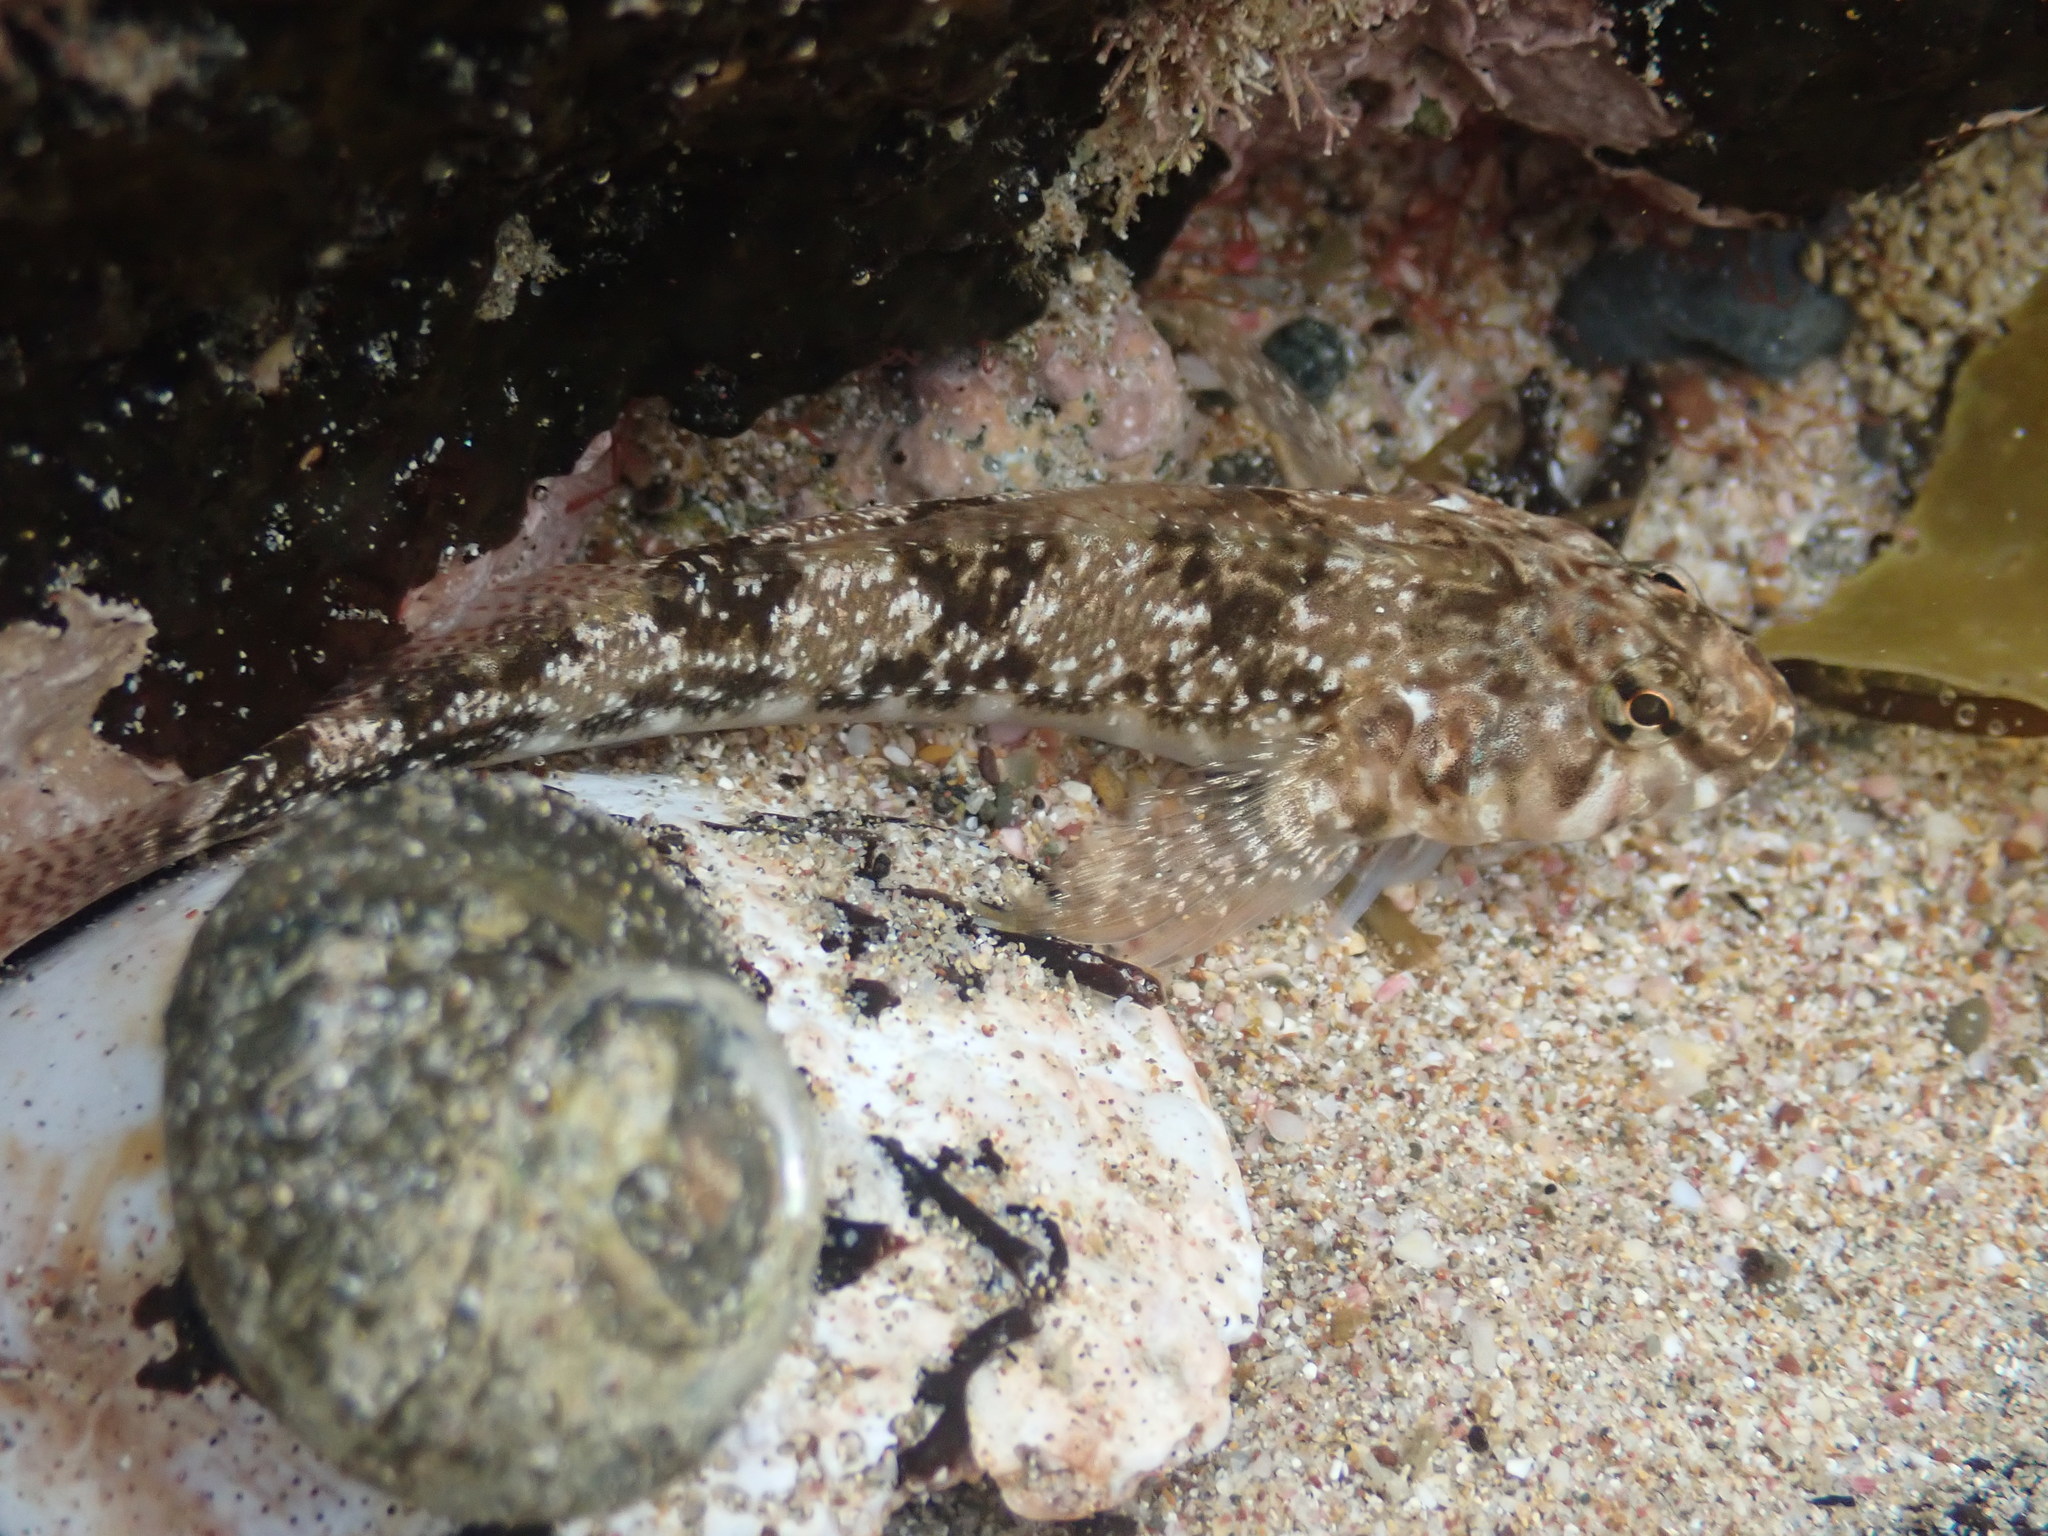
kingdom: Animalia
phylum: Chordata
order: Perciformes
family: Tripterygiidae
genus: Bellapiscis
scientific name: Bellapiscis medius
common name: Twister
